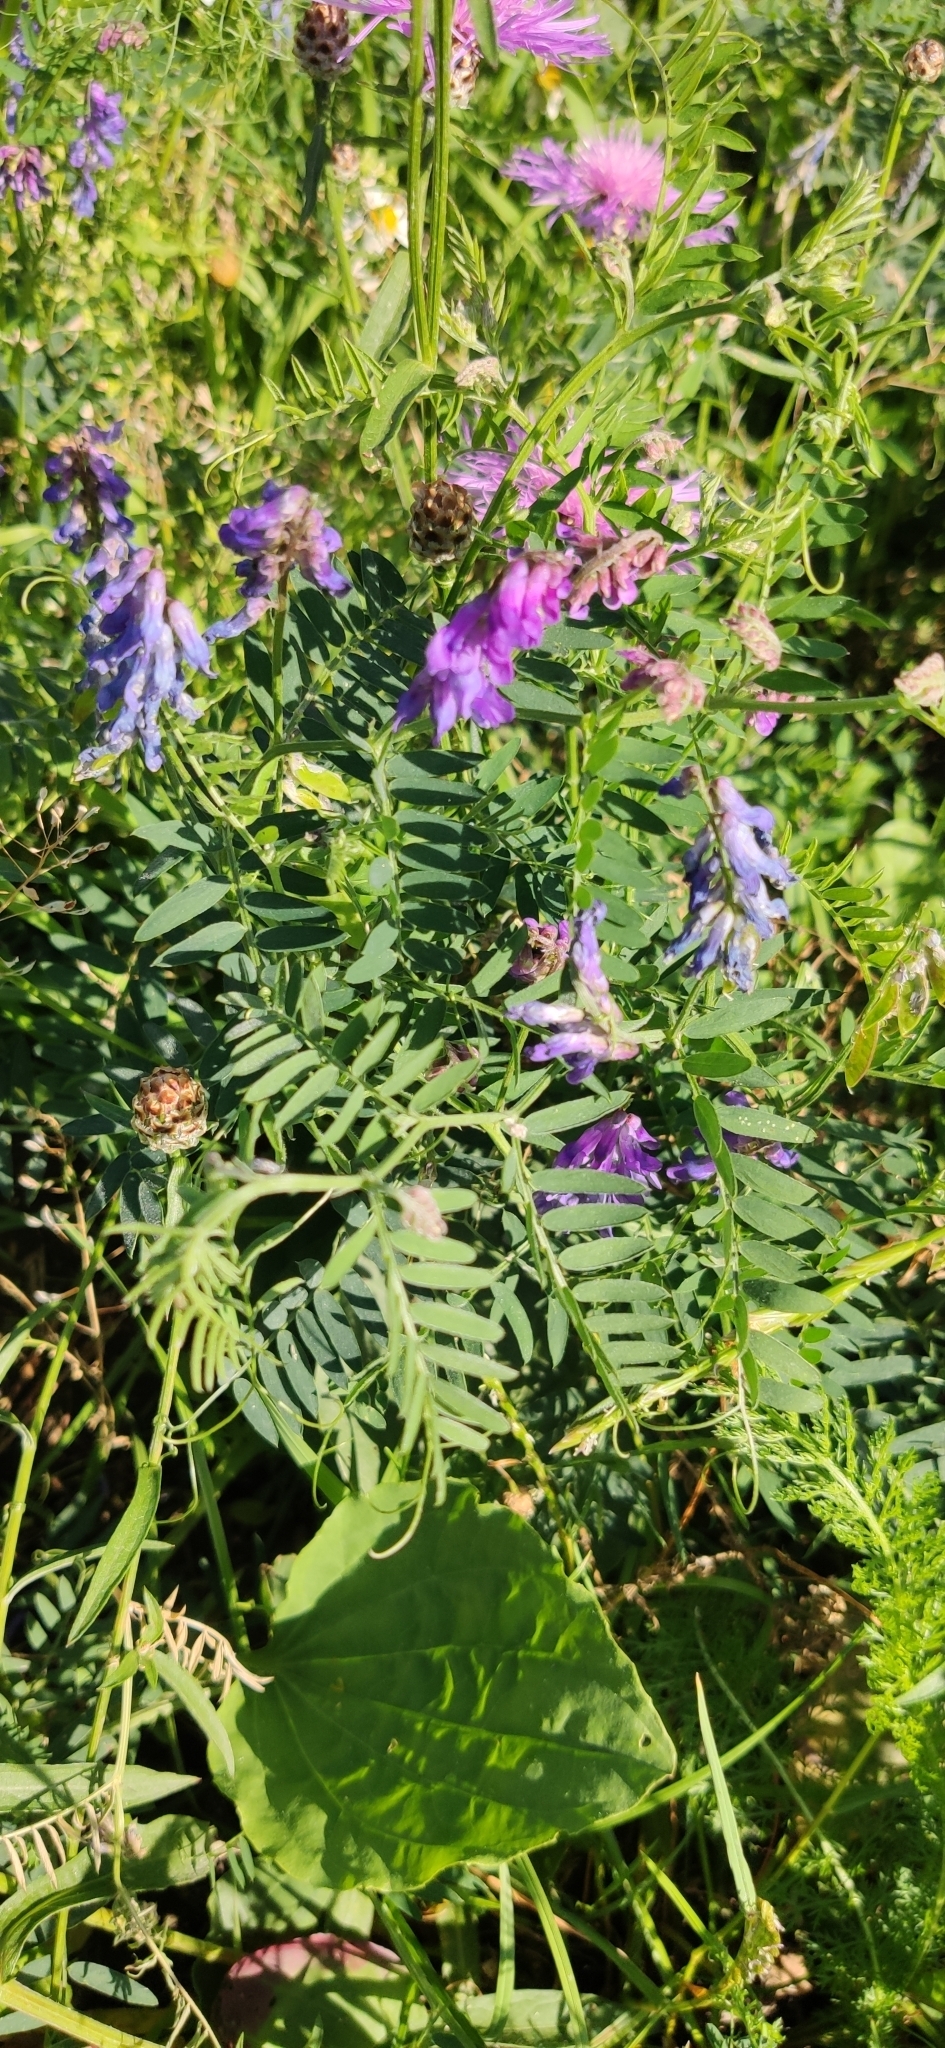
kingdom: Plantae
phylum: Tracheophyta
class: Magnoliopsida
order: Fabales
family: Fabaceae
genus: Vicia
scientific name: Vicia cracca
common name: Bird vetch
